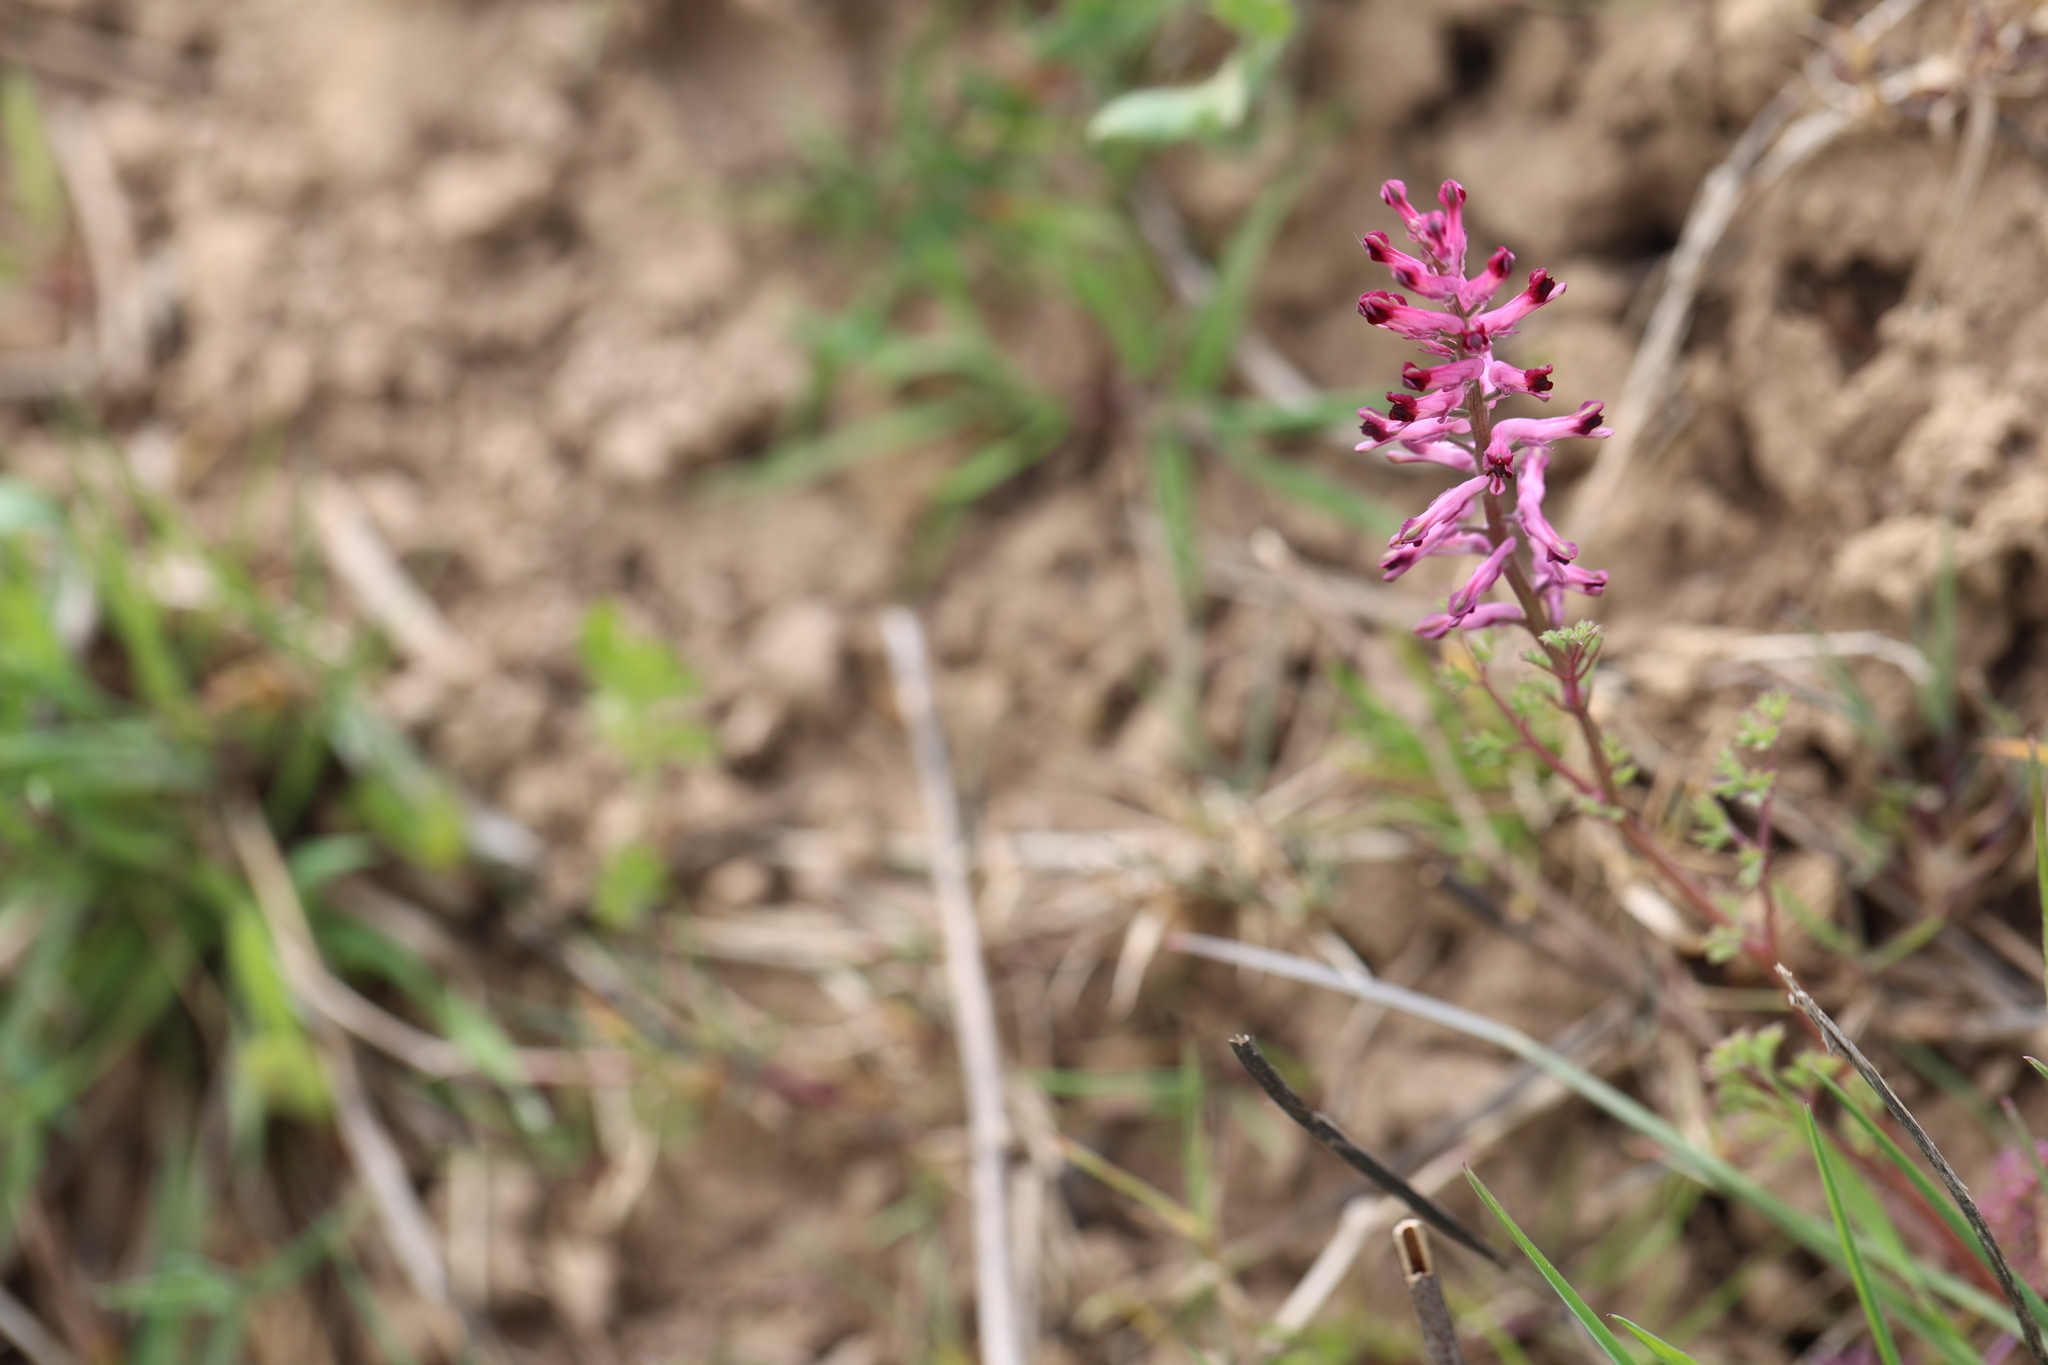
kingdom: Plantae
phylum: Tracheophyta
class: Magnoliopsida
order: Ranunculales
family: Papaveraceae
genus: Fumaria
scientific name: Fumaria officinalis
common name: Common fumitory
